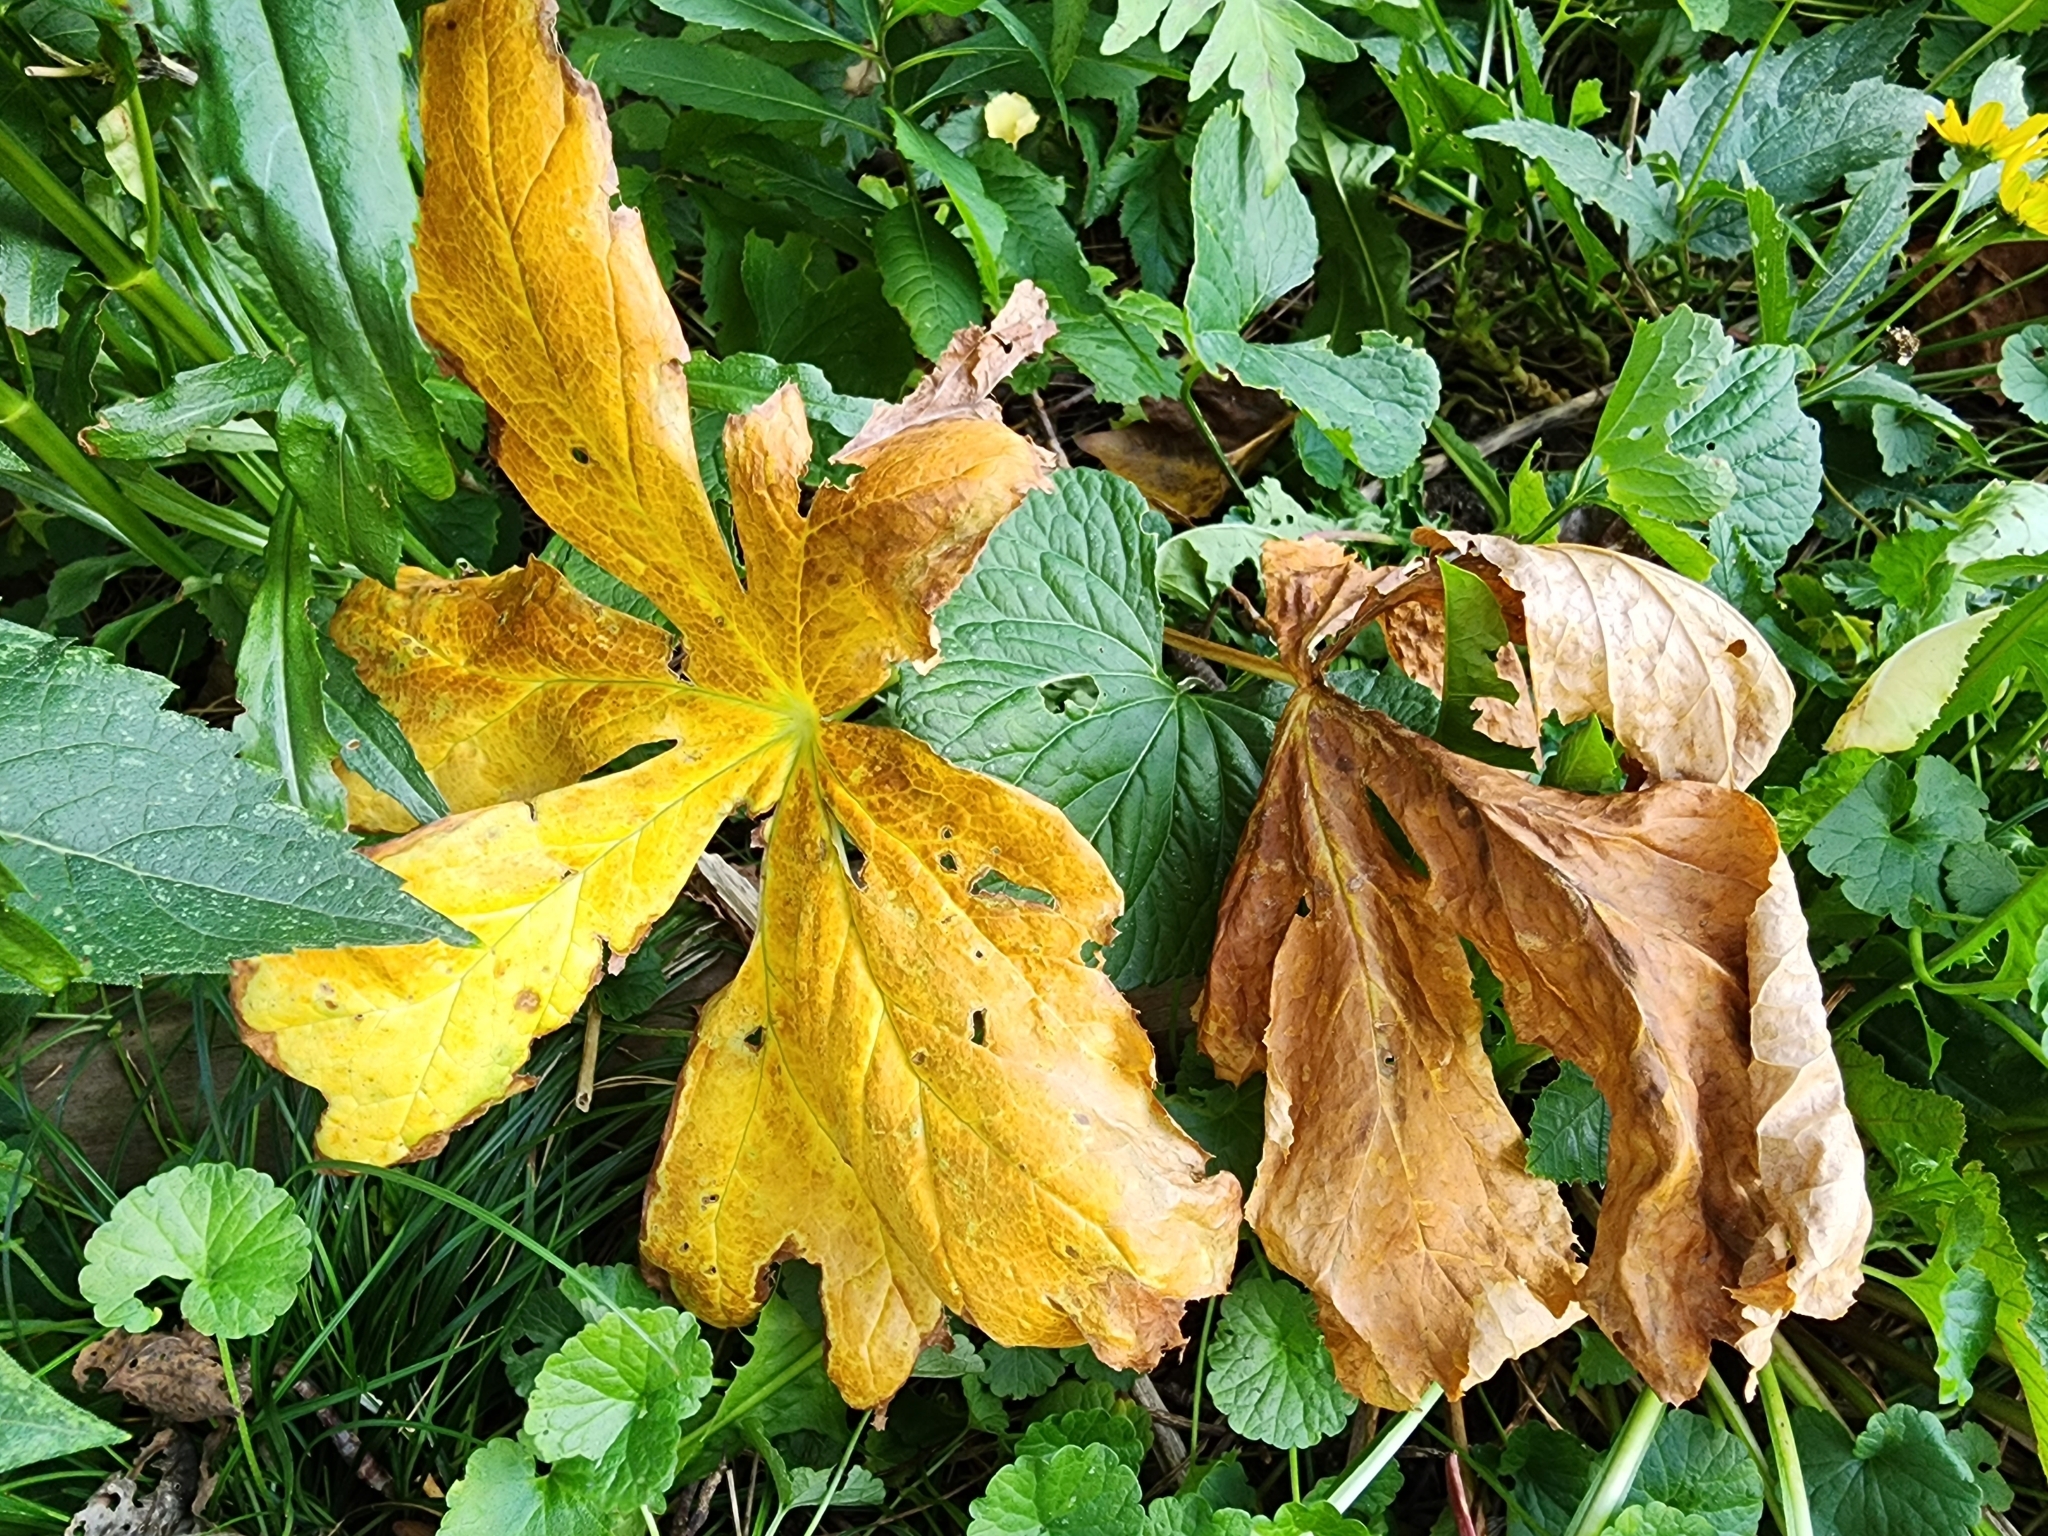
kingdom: Plantae
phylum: Tracheophyta
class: Magnoliopsida
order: Ranunculales
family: Berberidaceae
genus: Podophyllum
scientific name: Podophyllum peltatum
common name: Wild mandrake
